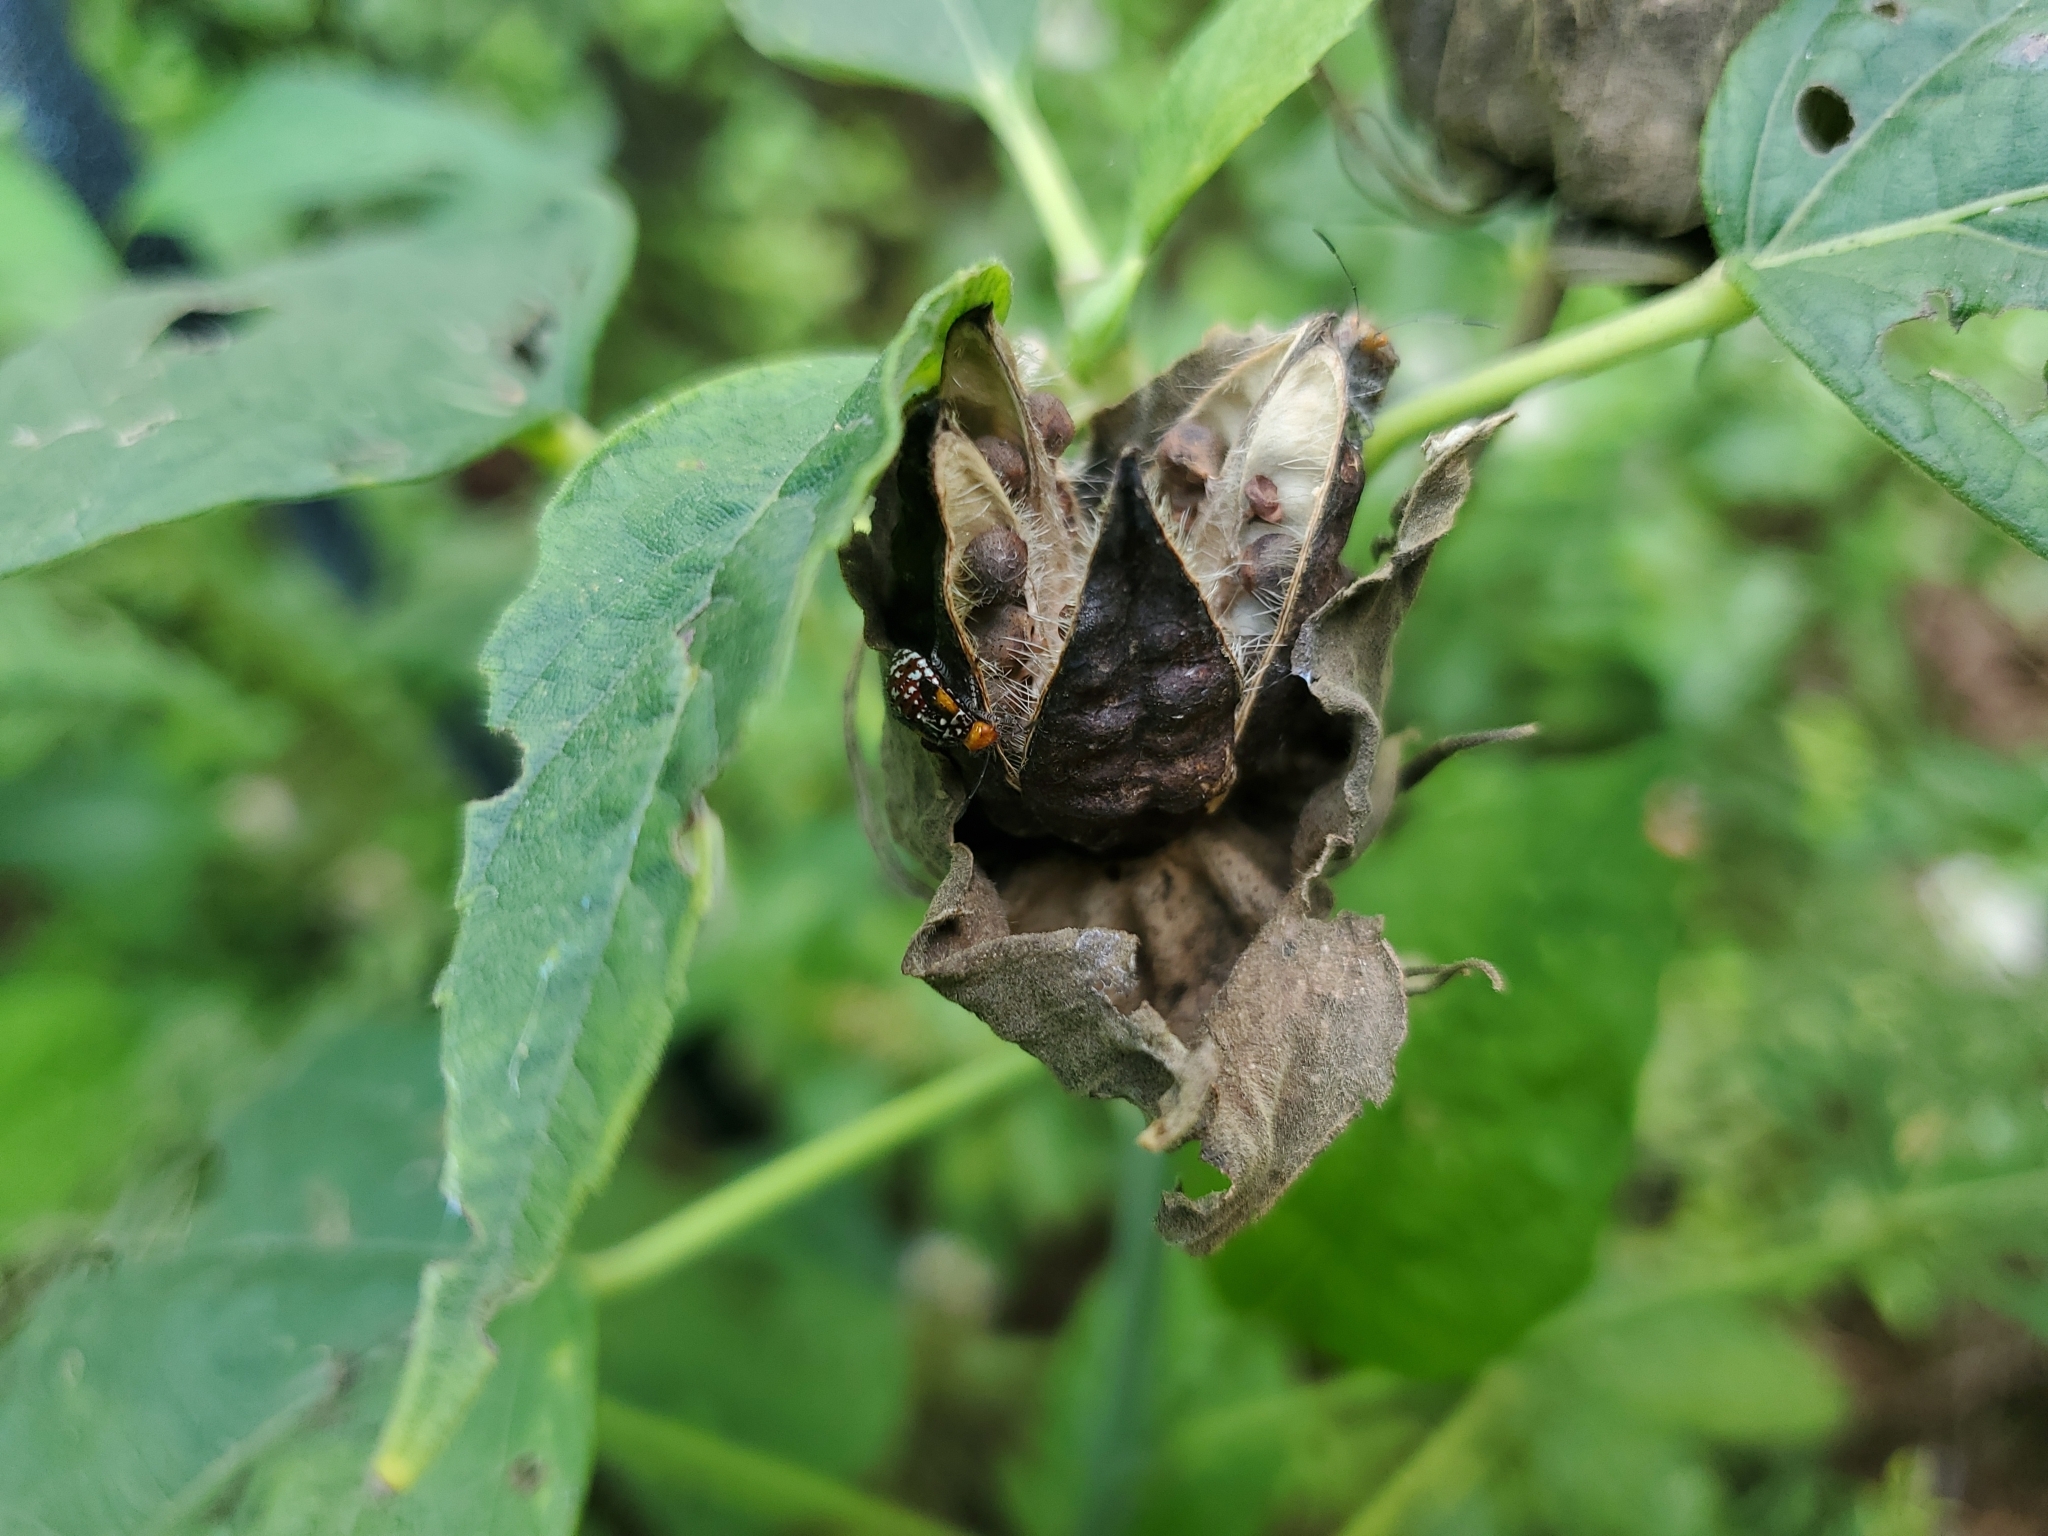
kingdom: Animalia
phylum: Arthropoda
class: Insecta
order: Hemiptera
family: Rhopalidae
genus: Niesthrea
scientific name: Niesthrea louisianica
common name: Scentless plant bug
